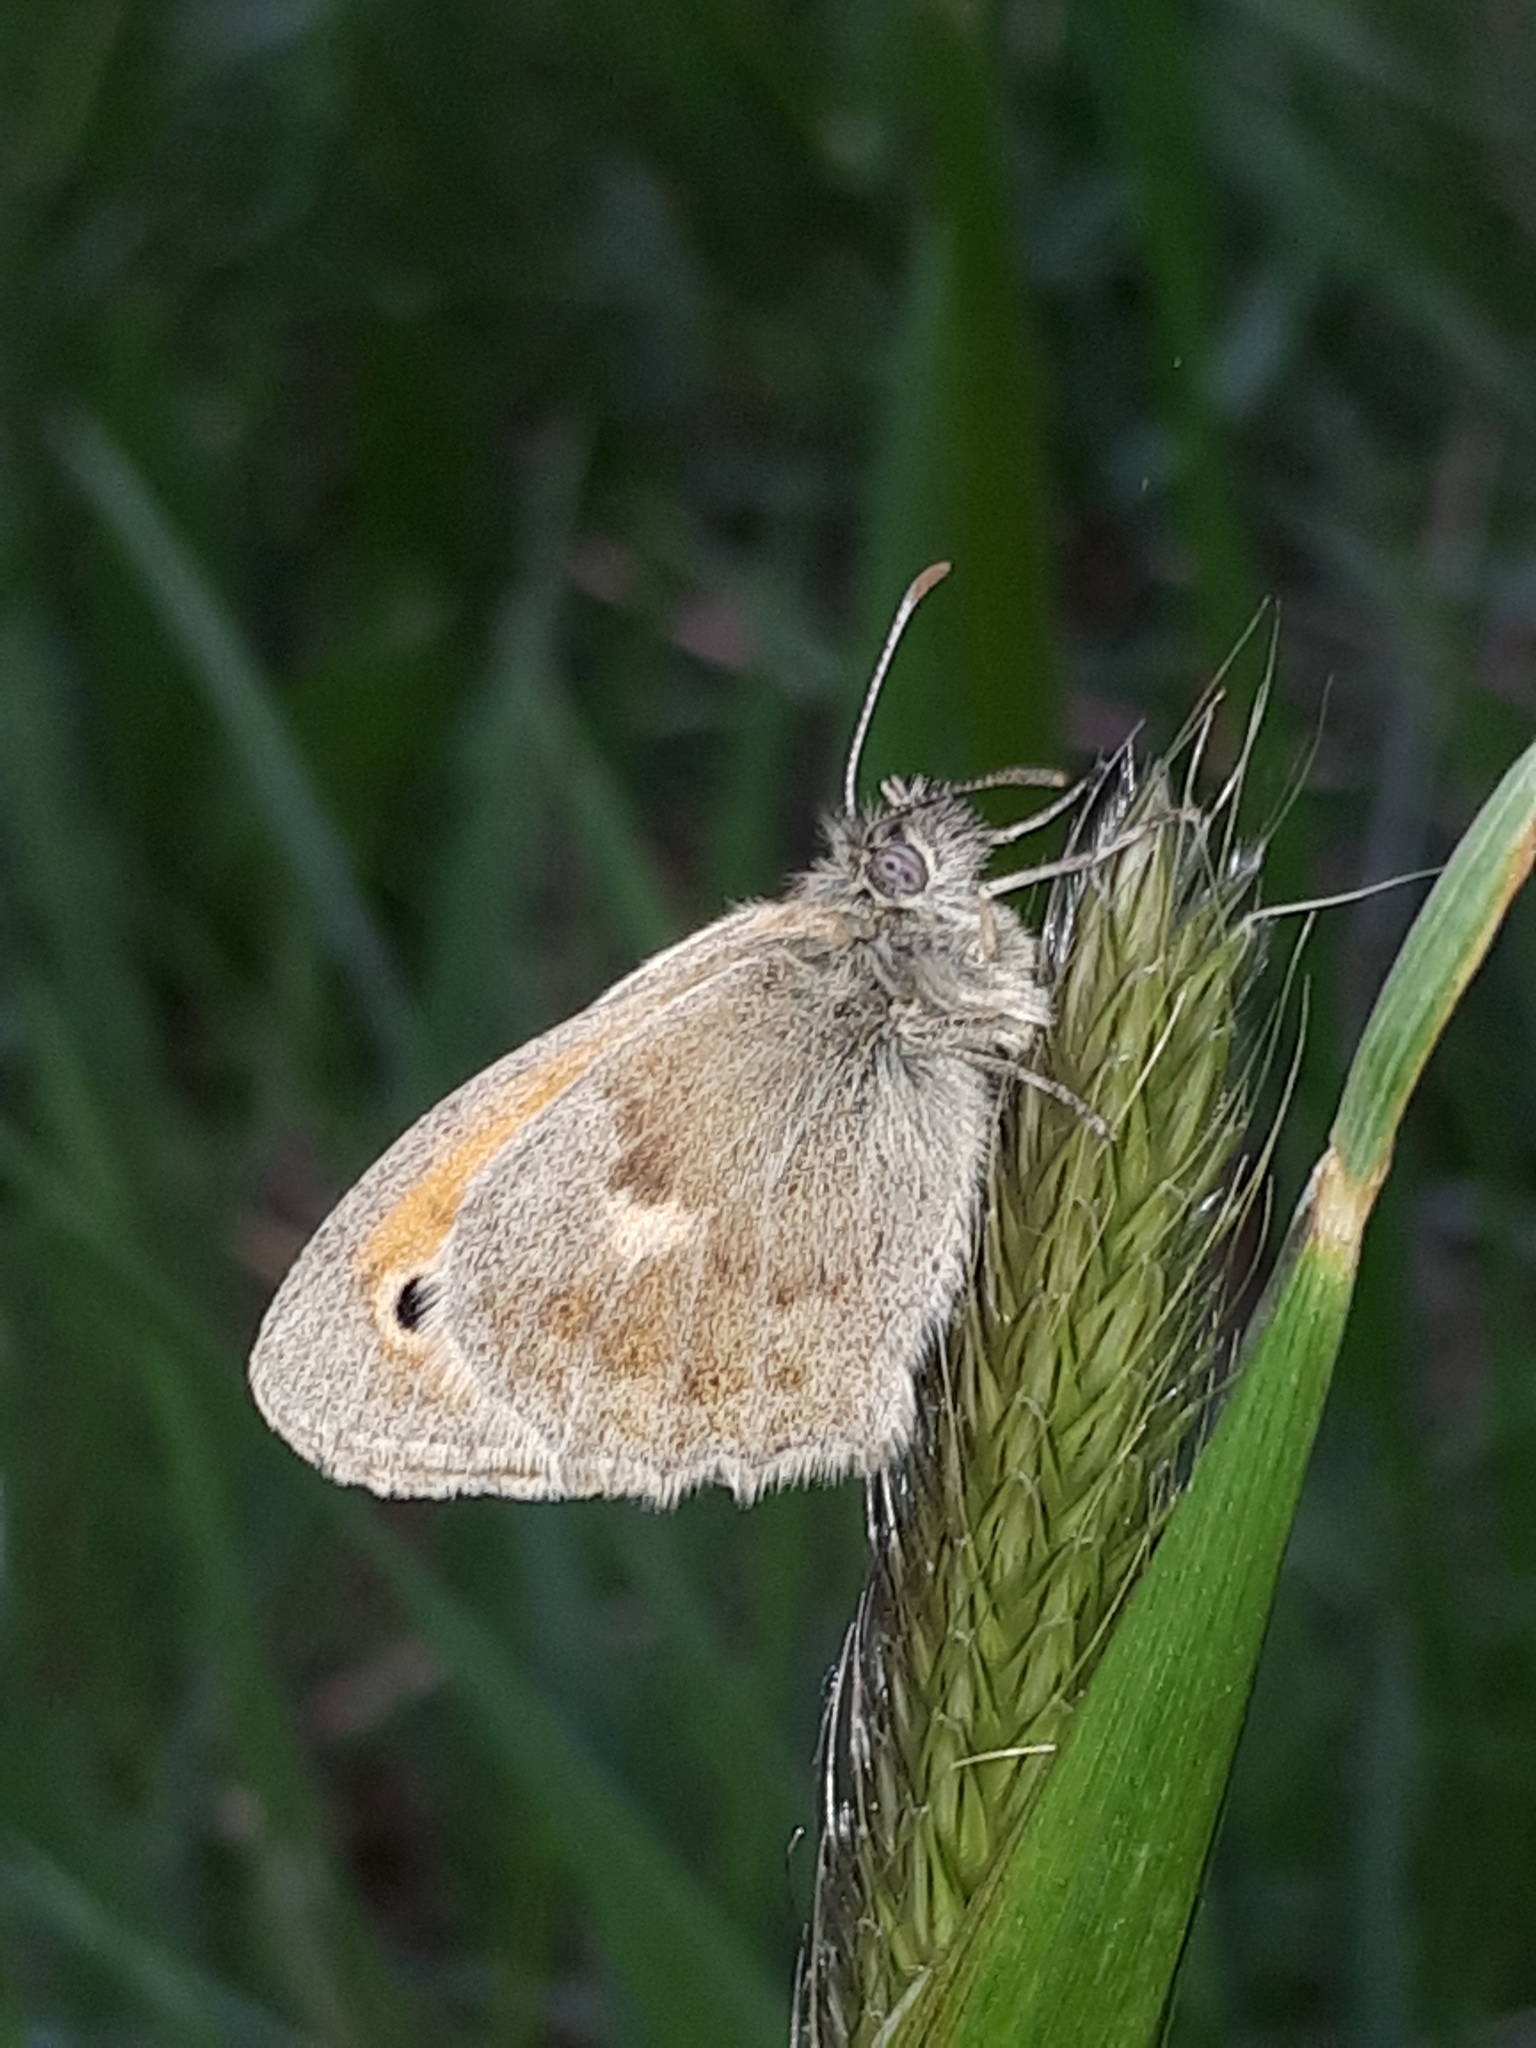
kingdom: Animalia
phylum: Arthropoda
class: Insecta
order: Lepidoptera
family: Nymphalidae
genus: Coenonympha
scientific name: Coenonympha pamphilus
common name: Small heath
